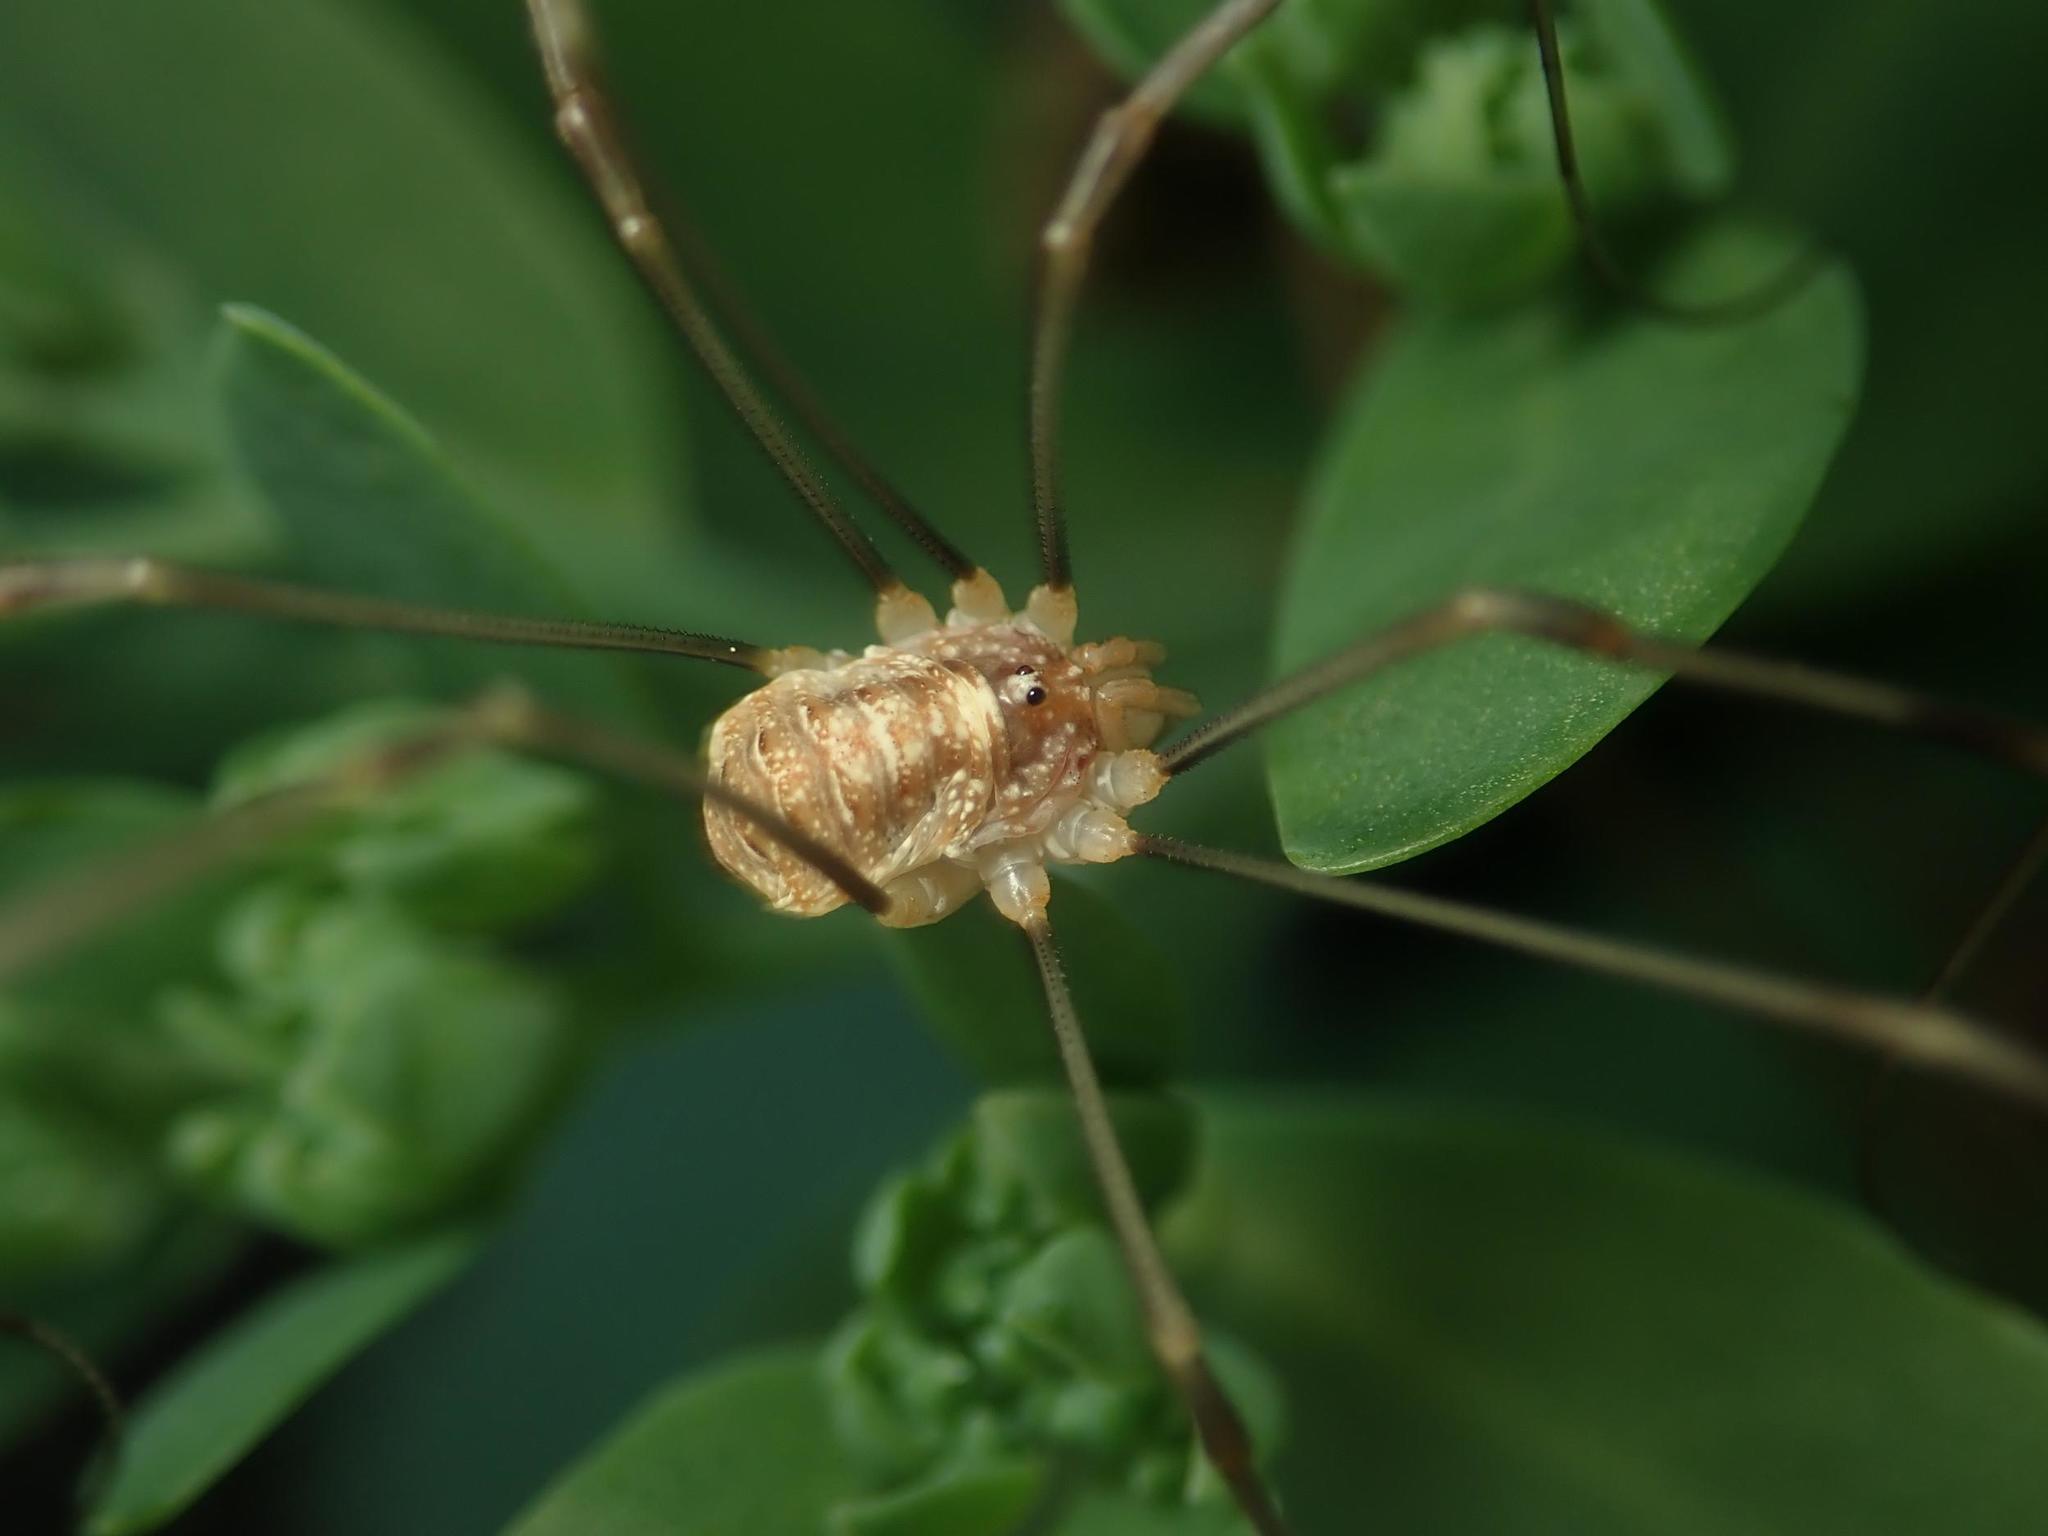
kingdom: Animalia
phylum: Arthropoda
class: Arachnida
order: Opiliones
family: Phalangiidae
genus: Opilio
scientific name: Opilio canestrinii
